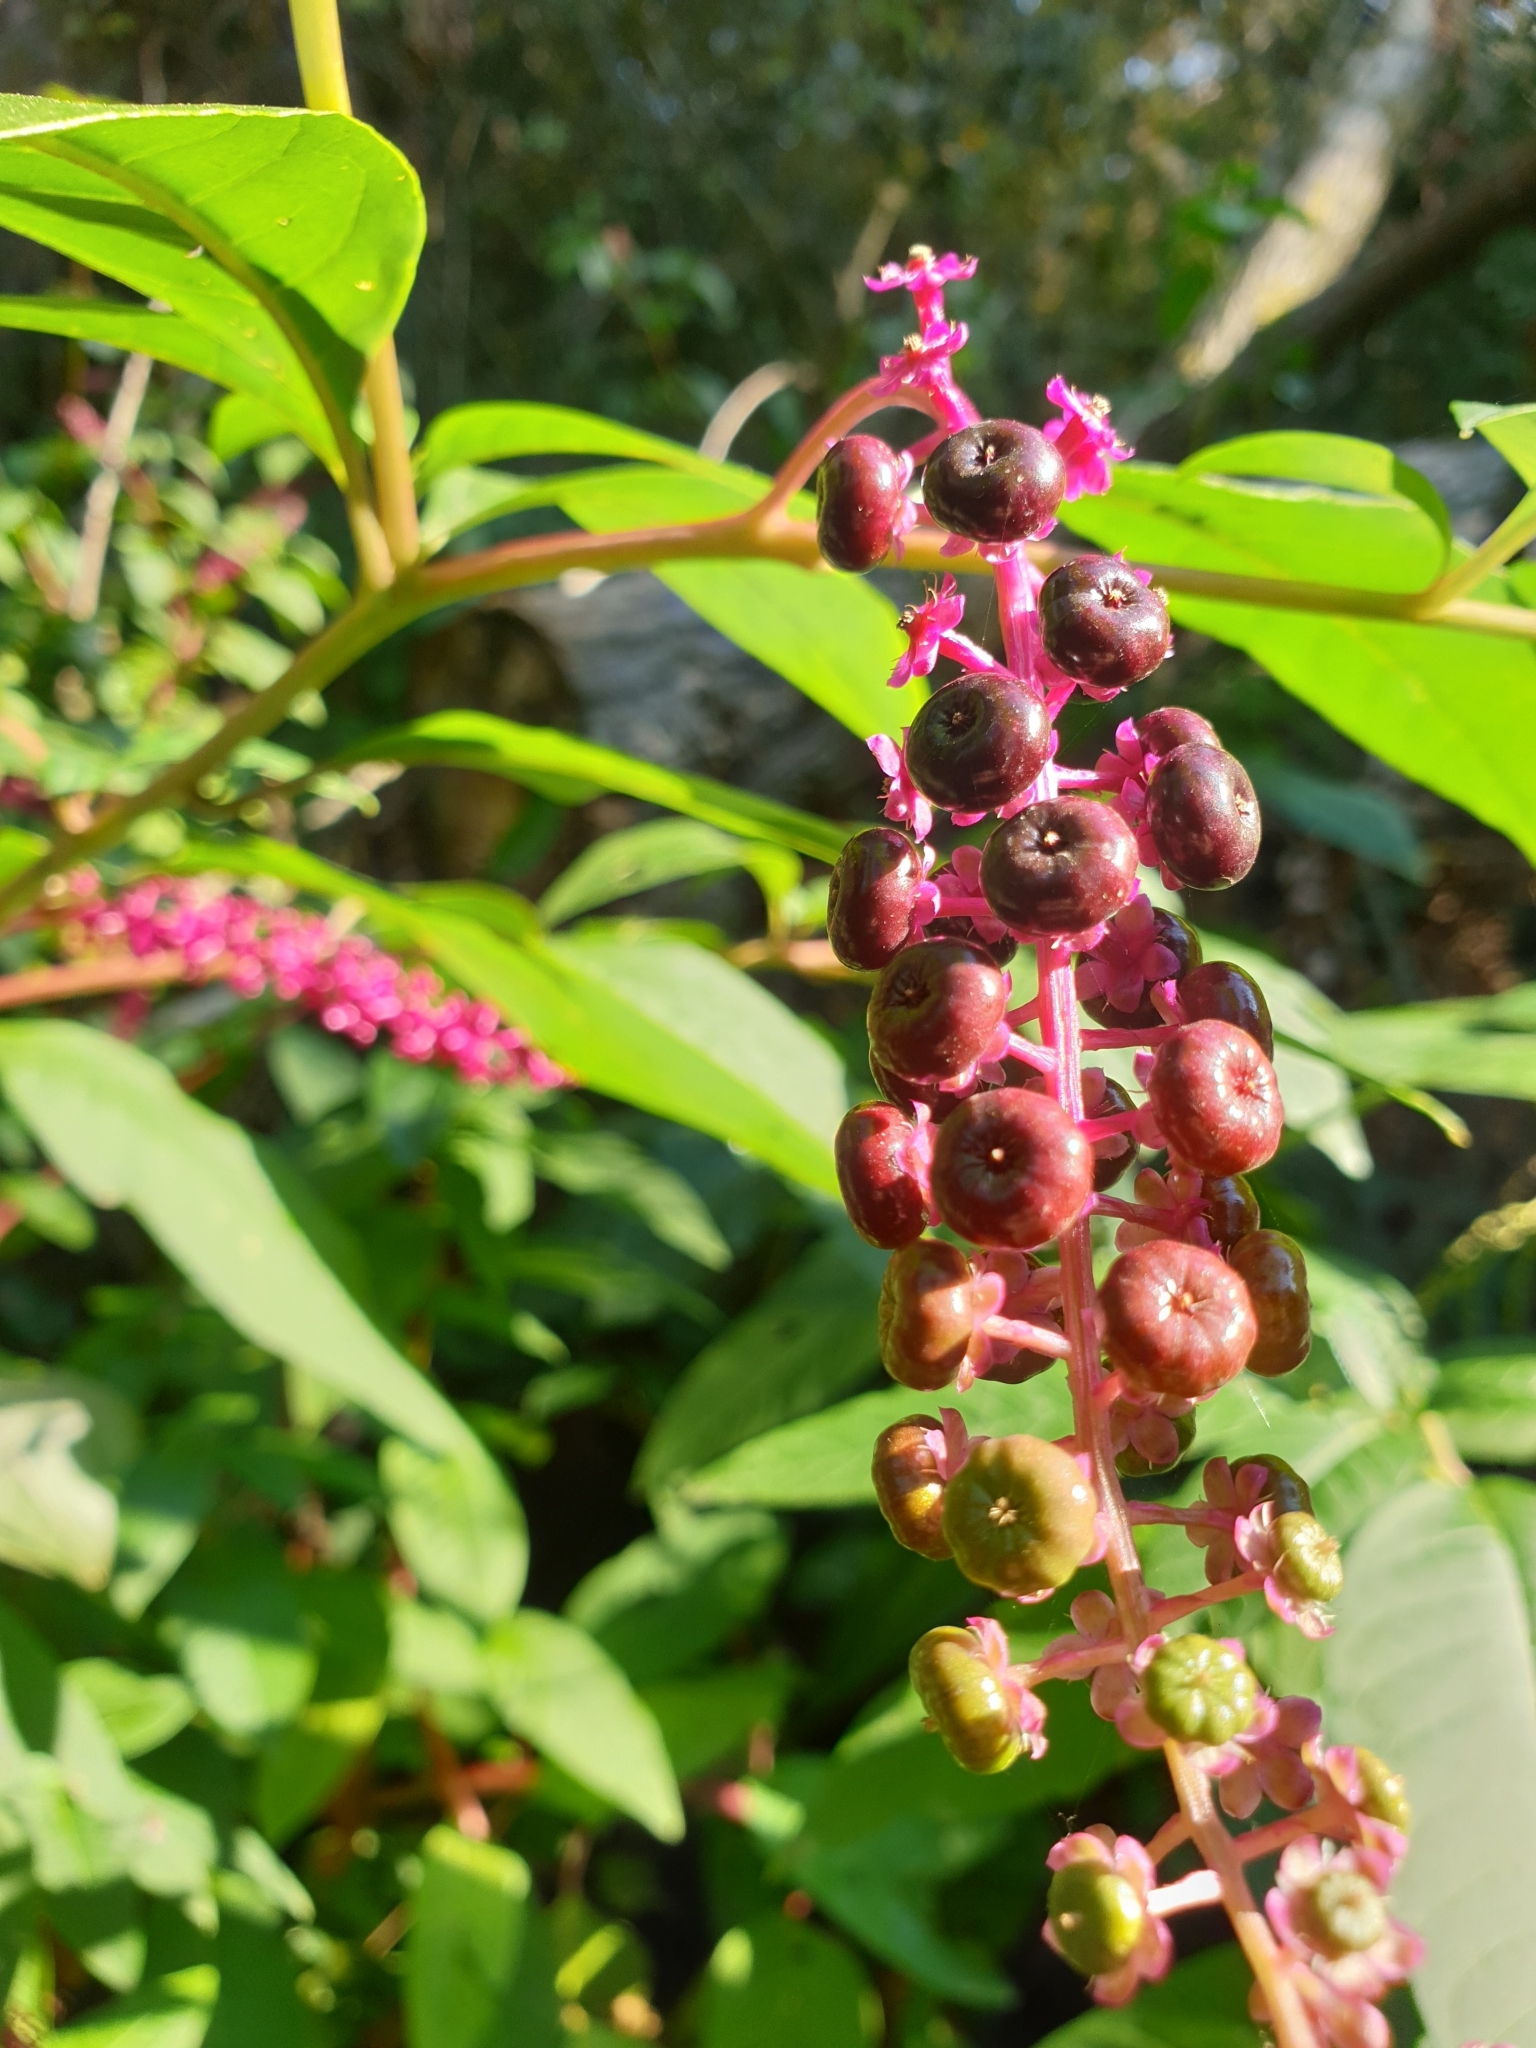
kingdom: Plantae
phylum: Tracheophyta
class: Magnoliopsida
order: Caryophyllales
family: Phytolaccaceae
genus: Phytolacca
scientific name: Phytolacca americana
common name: American pokeweed
